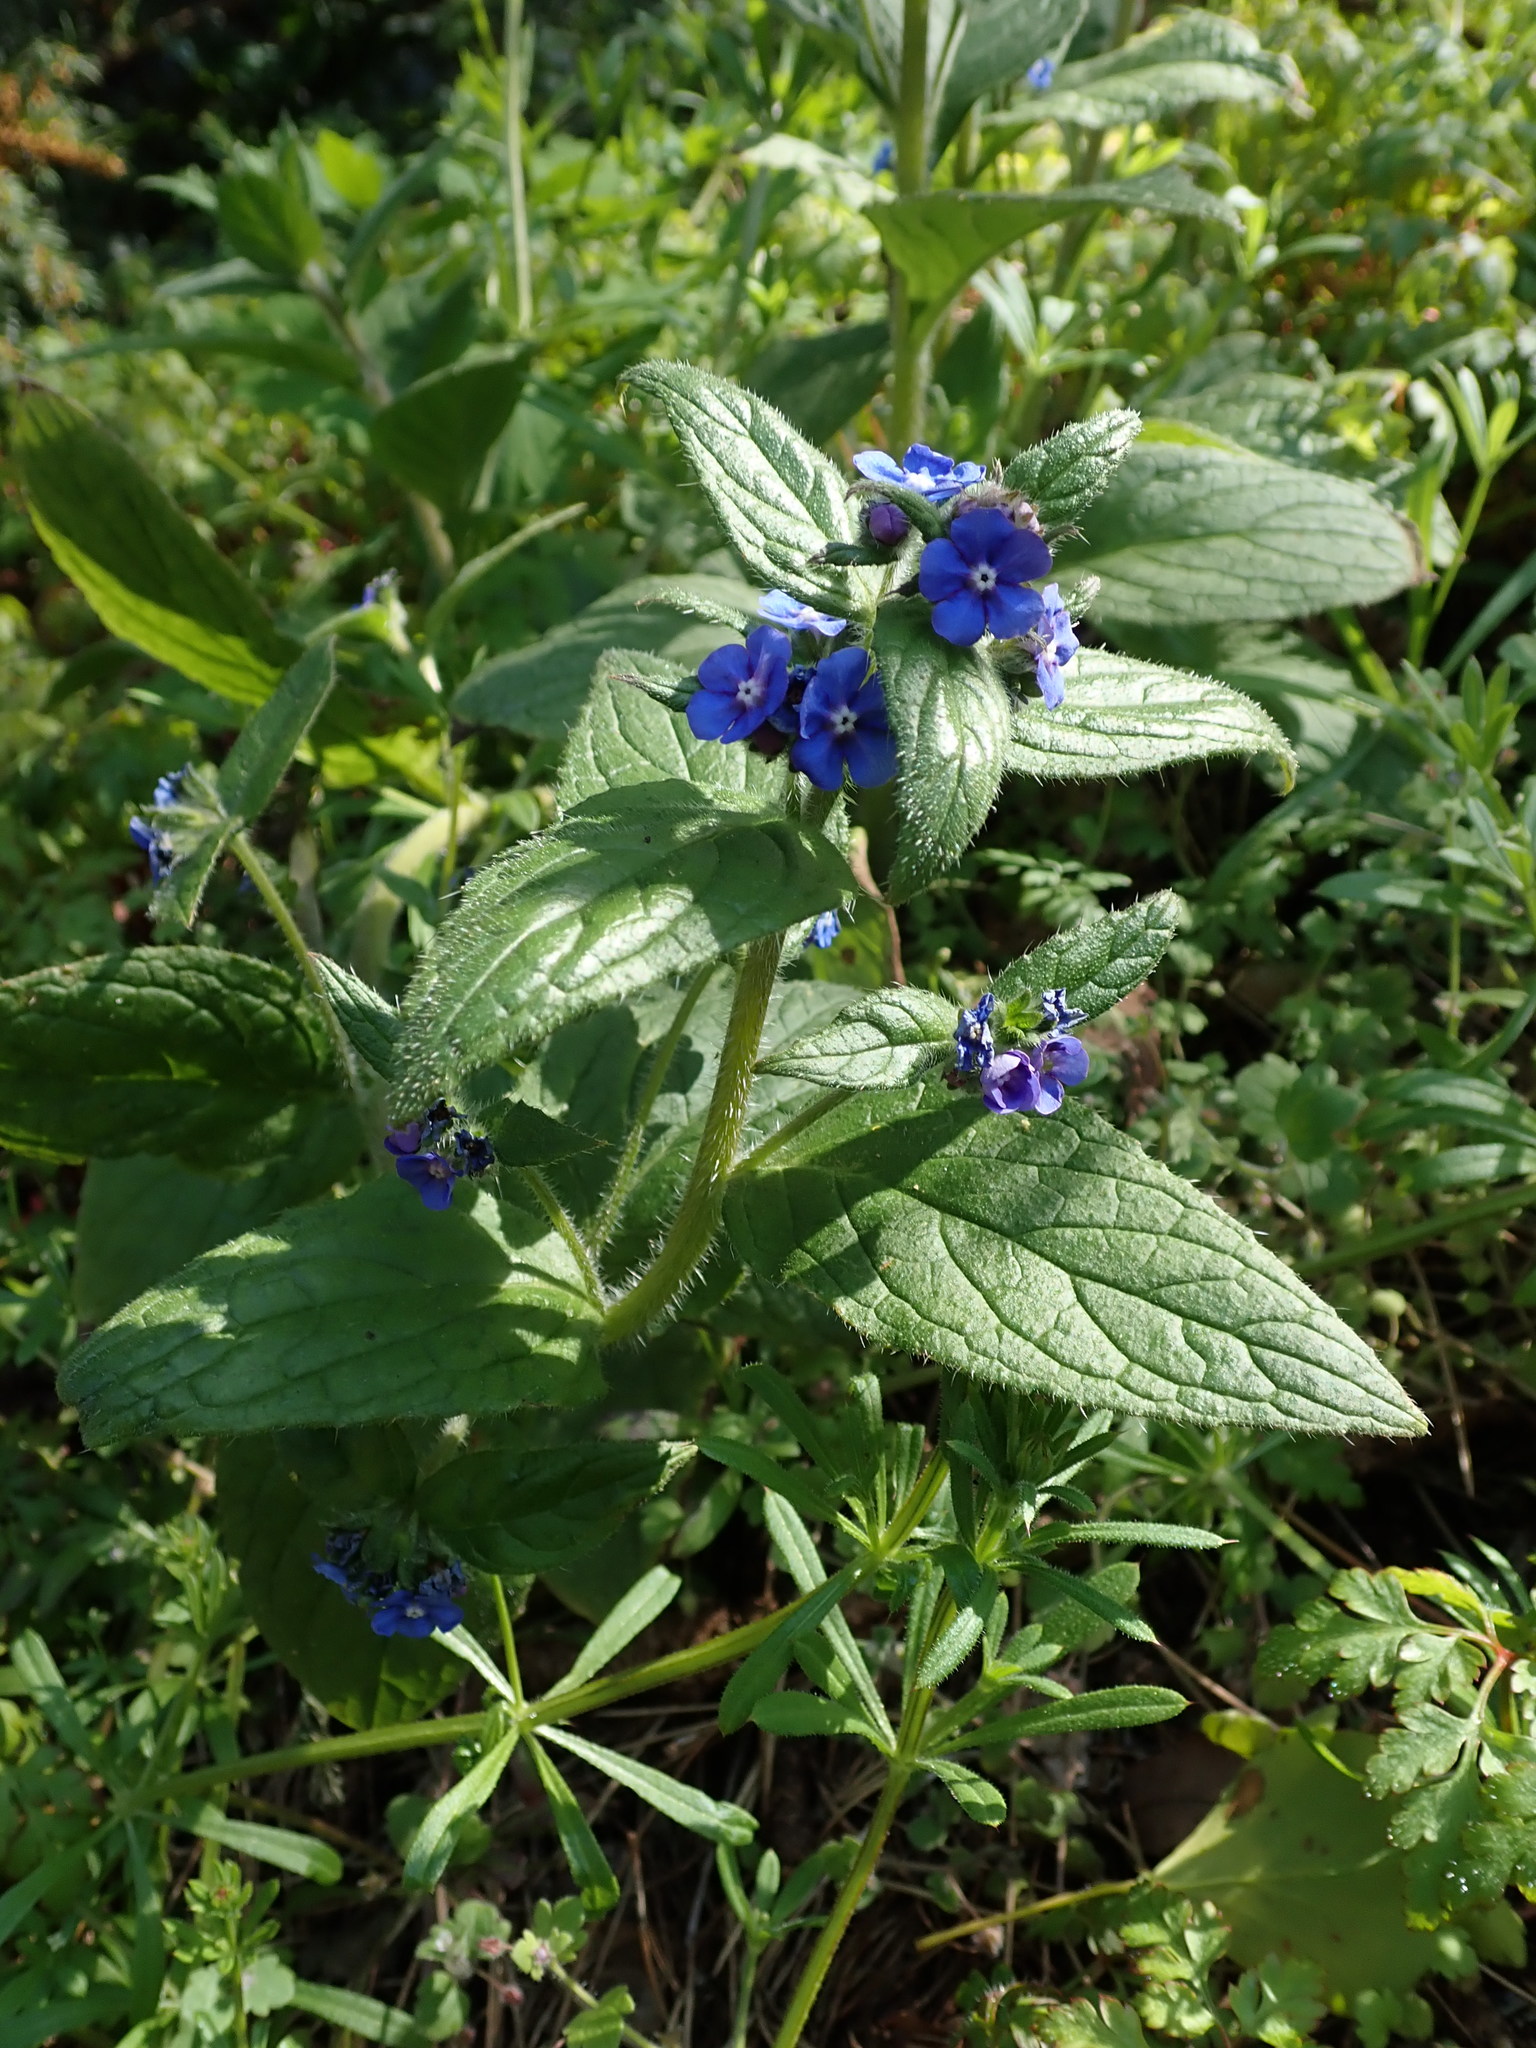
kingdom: Plantae
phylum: Tracheophyta
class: Magnoliopsida
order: Boraginales
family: Boraginaceae
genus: Pentaglottis
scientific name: Pentaglottis sempervirens
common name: Green alkanet
